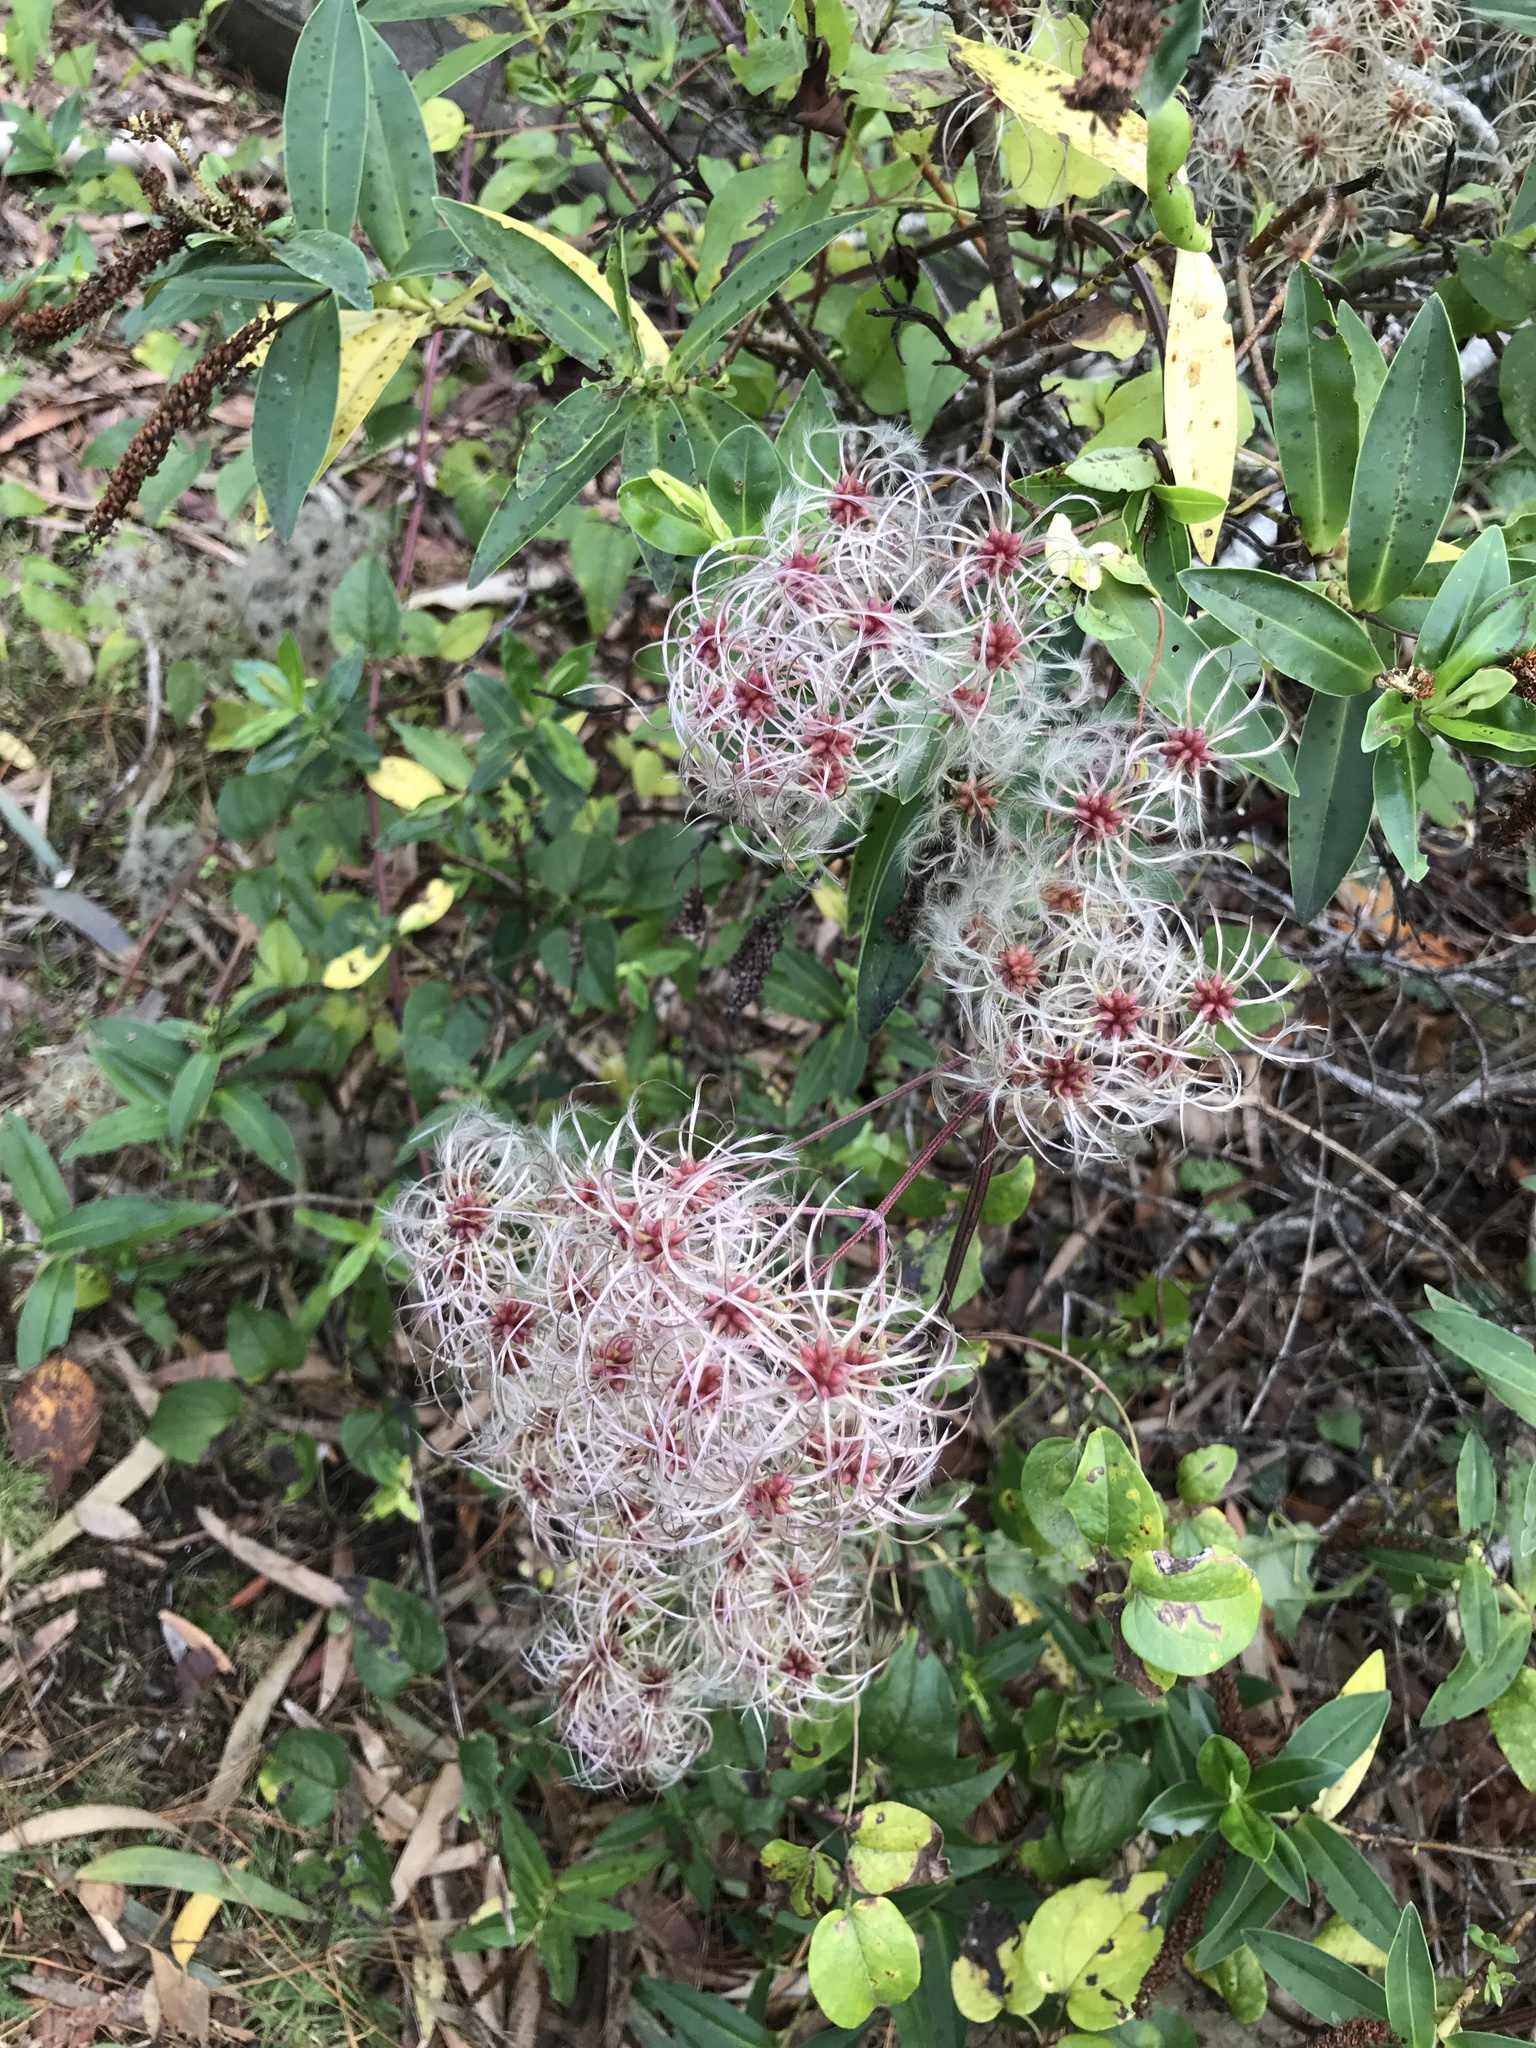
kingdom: Plantae
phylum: Tracheophyta
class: Magnoliopsida
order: Ranunculales
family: Ranunculaceae
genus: Clematis
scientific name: Clematis vitalba
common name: Evergreen clematis
